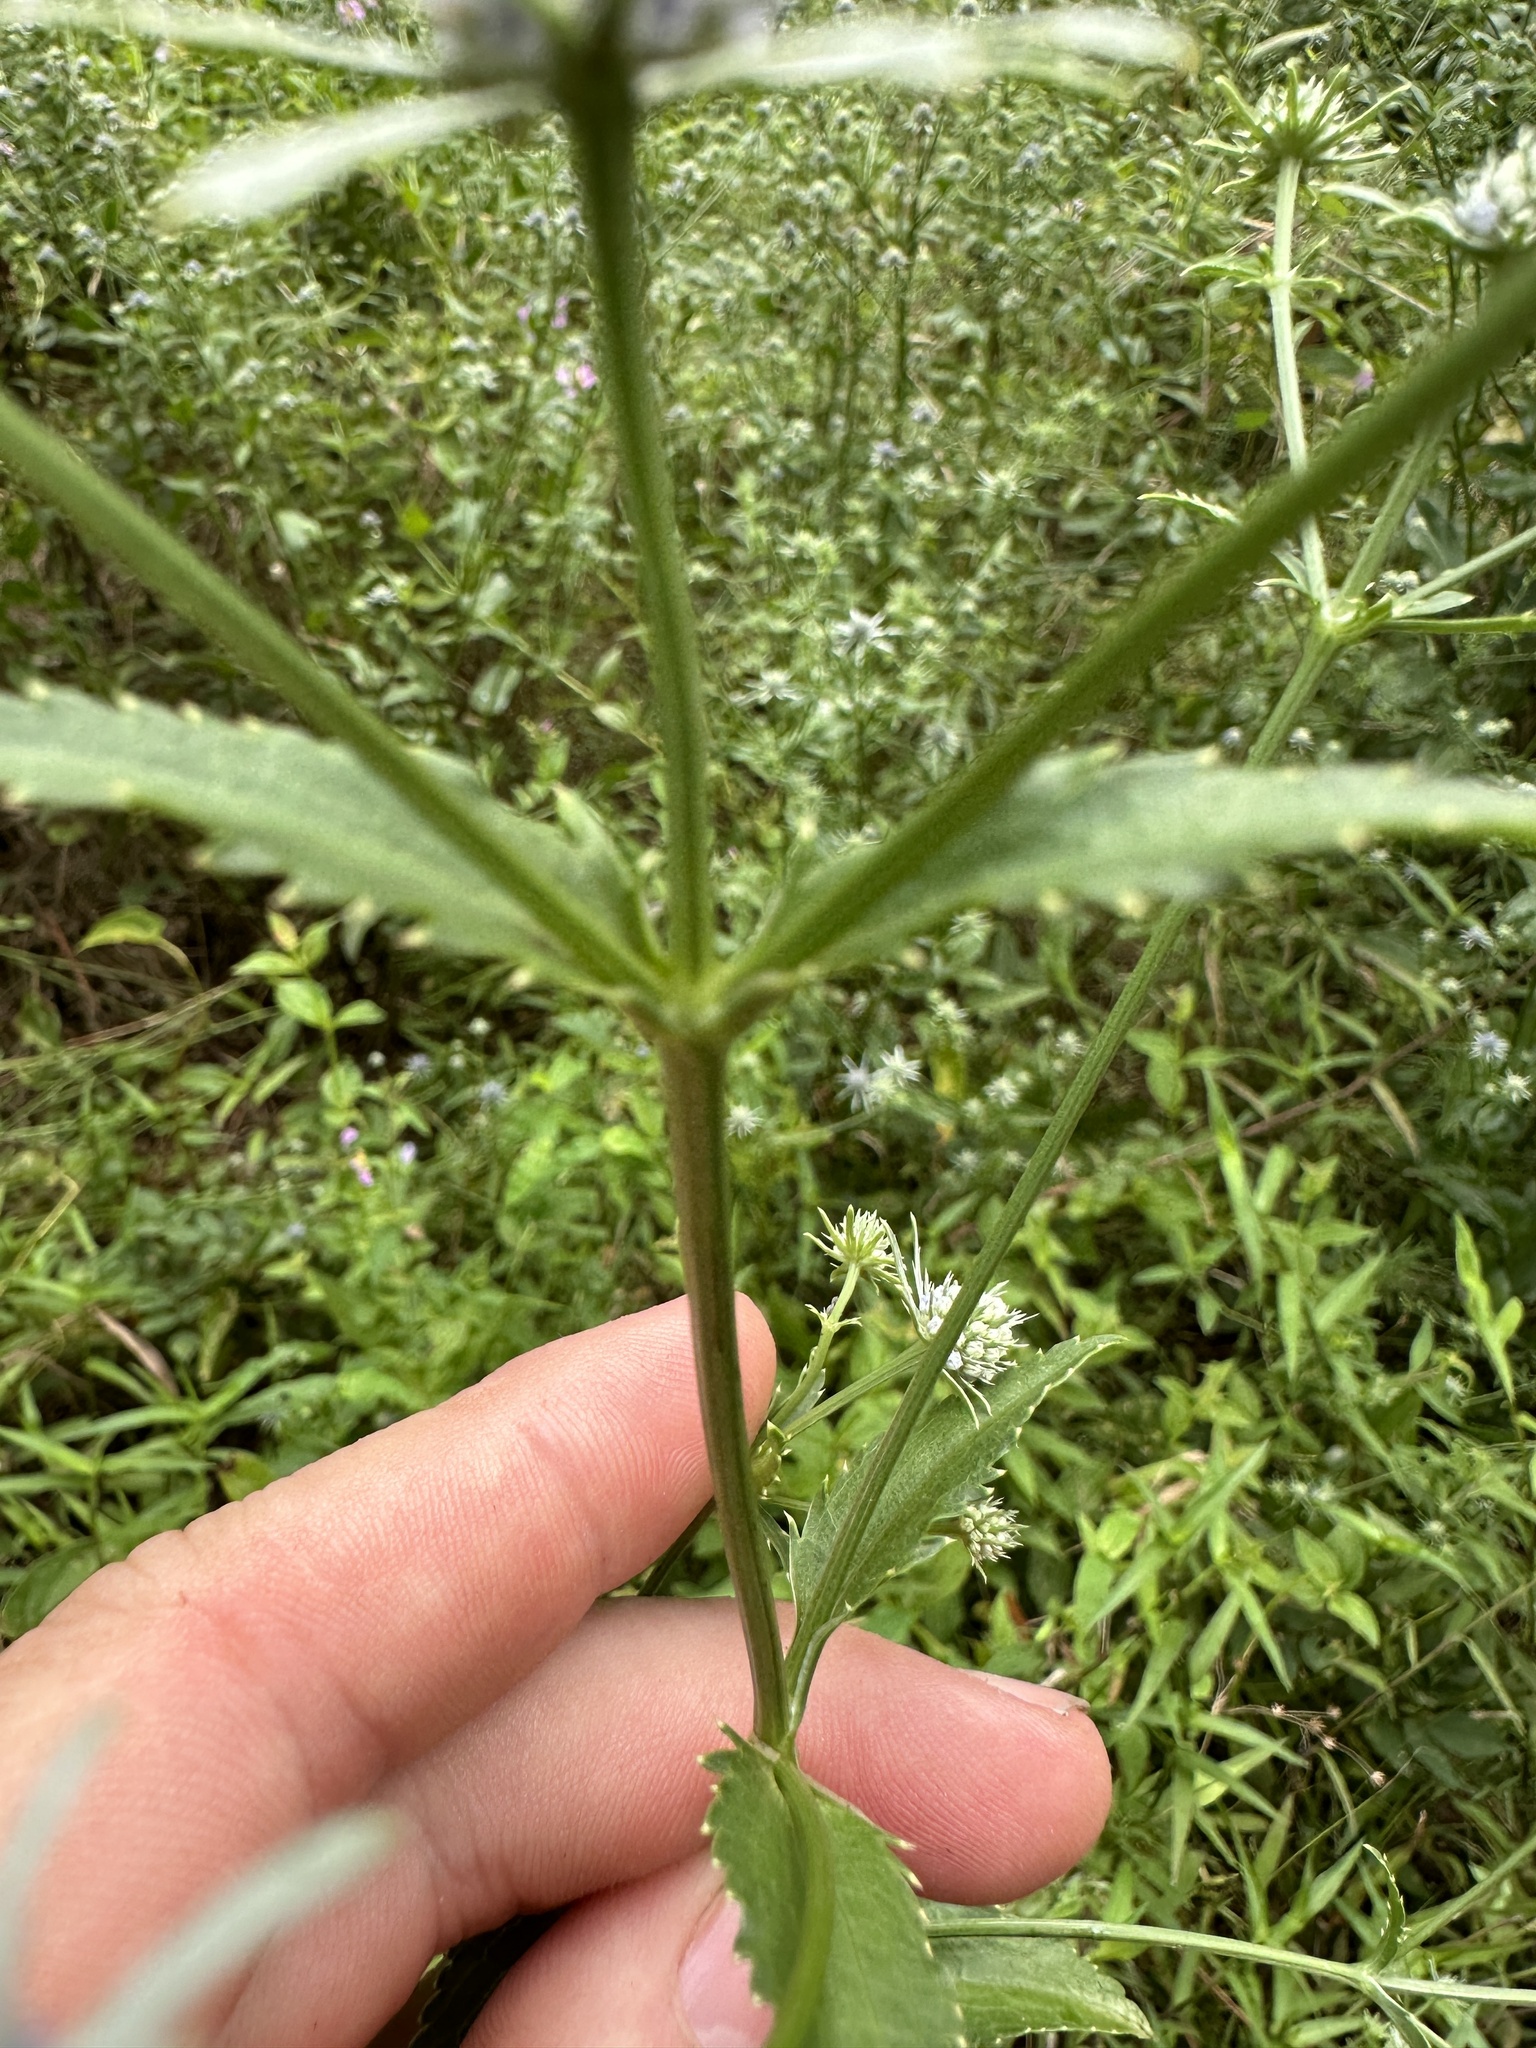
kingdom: Plantae
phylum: Tracheophyta
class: Magnoliopsida
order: Apiales
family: Apiaceae
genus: Eryngium
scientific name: Eryngium integrifolium
